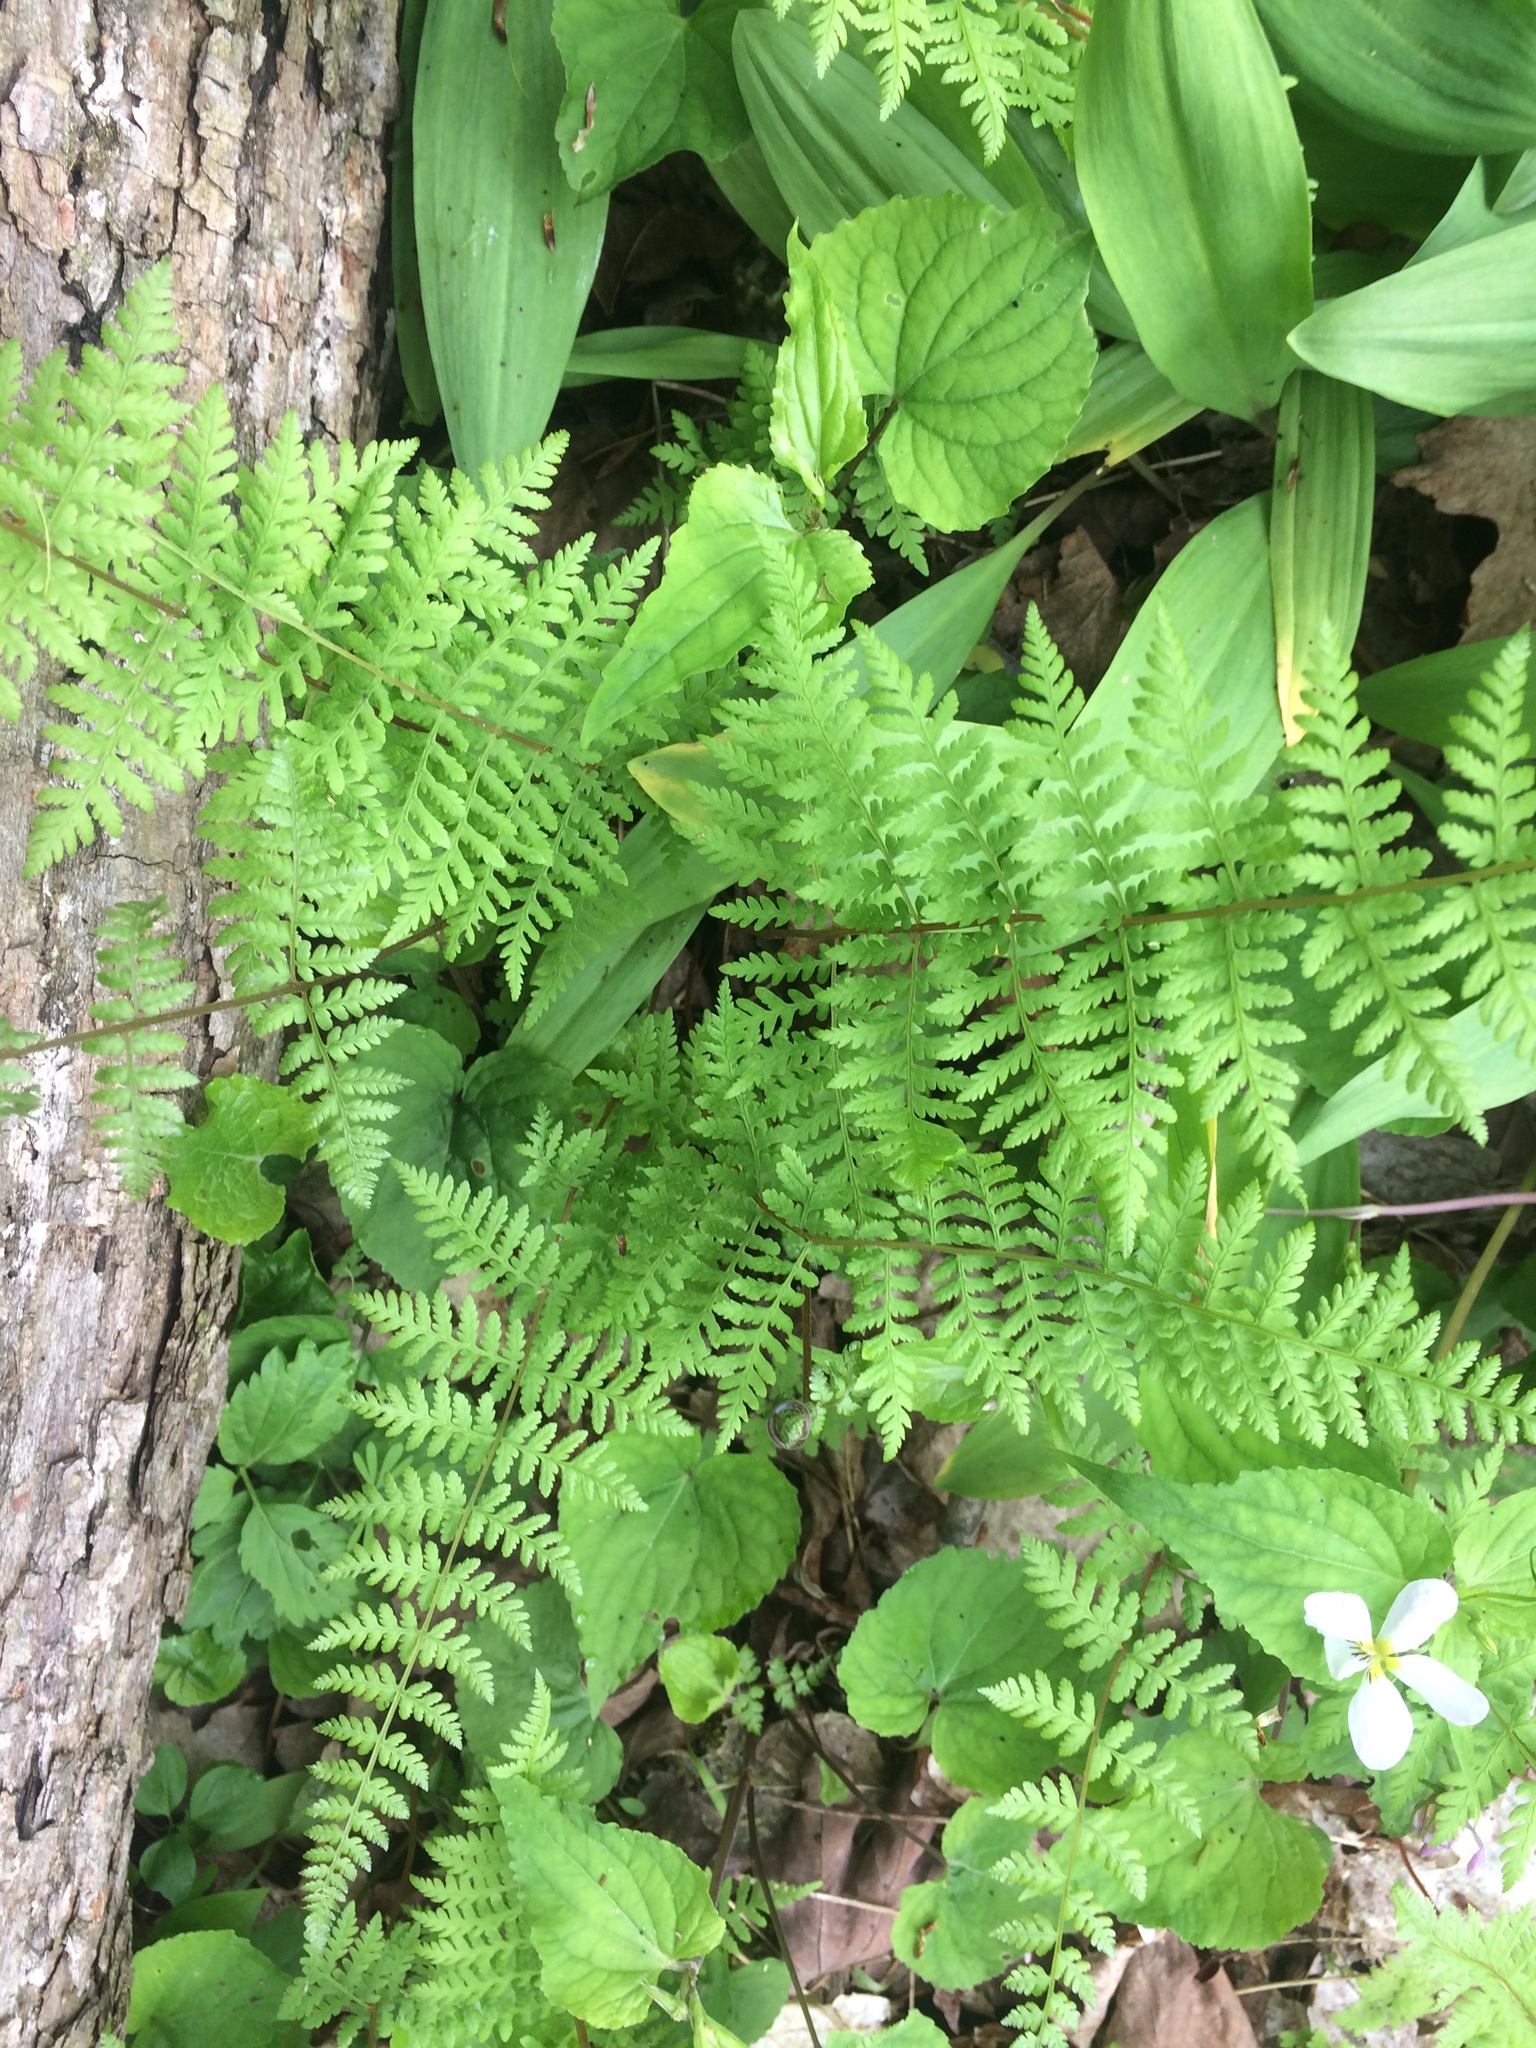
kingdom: Plantae
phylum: Tracheophyta
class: Polypodiopsida
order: Polypodiales
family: Cystopteridaceae
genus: Cystopteris
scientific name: Cystopteris bulbifera
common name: Bulblet bladder fern
